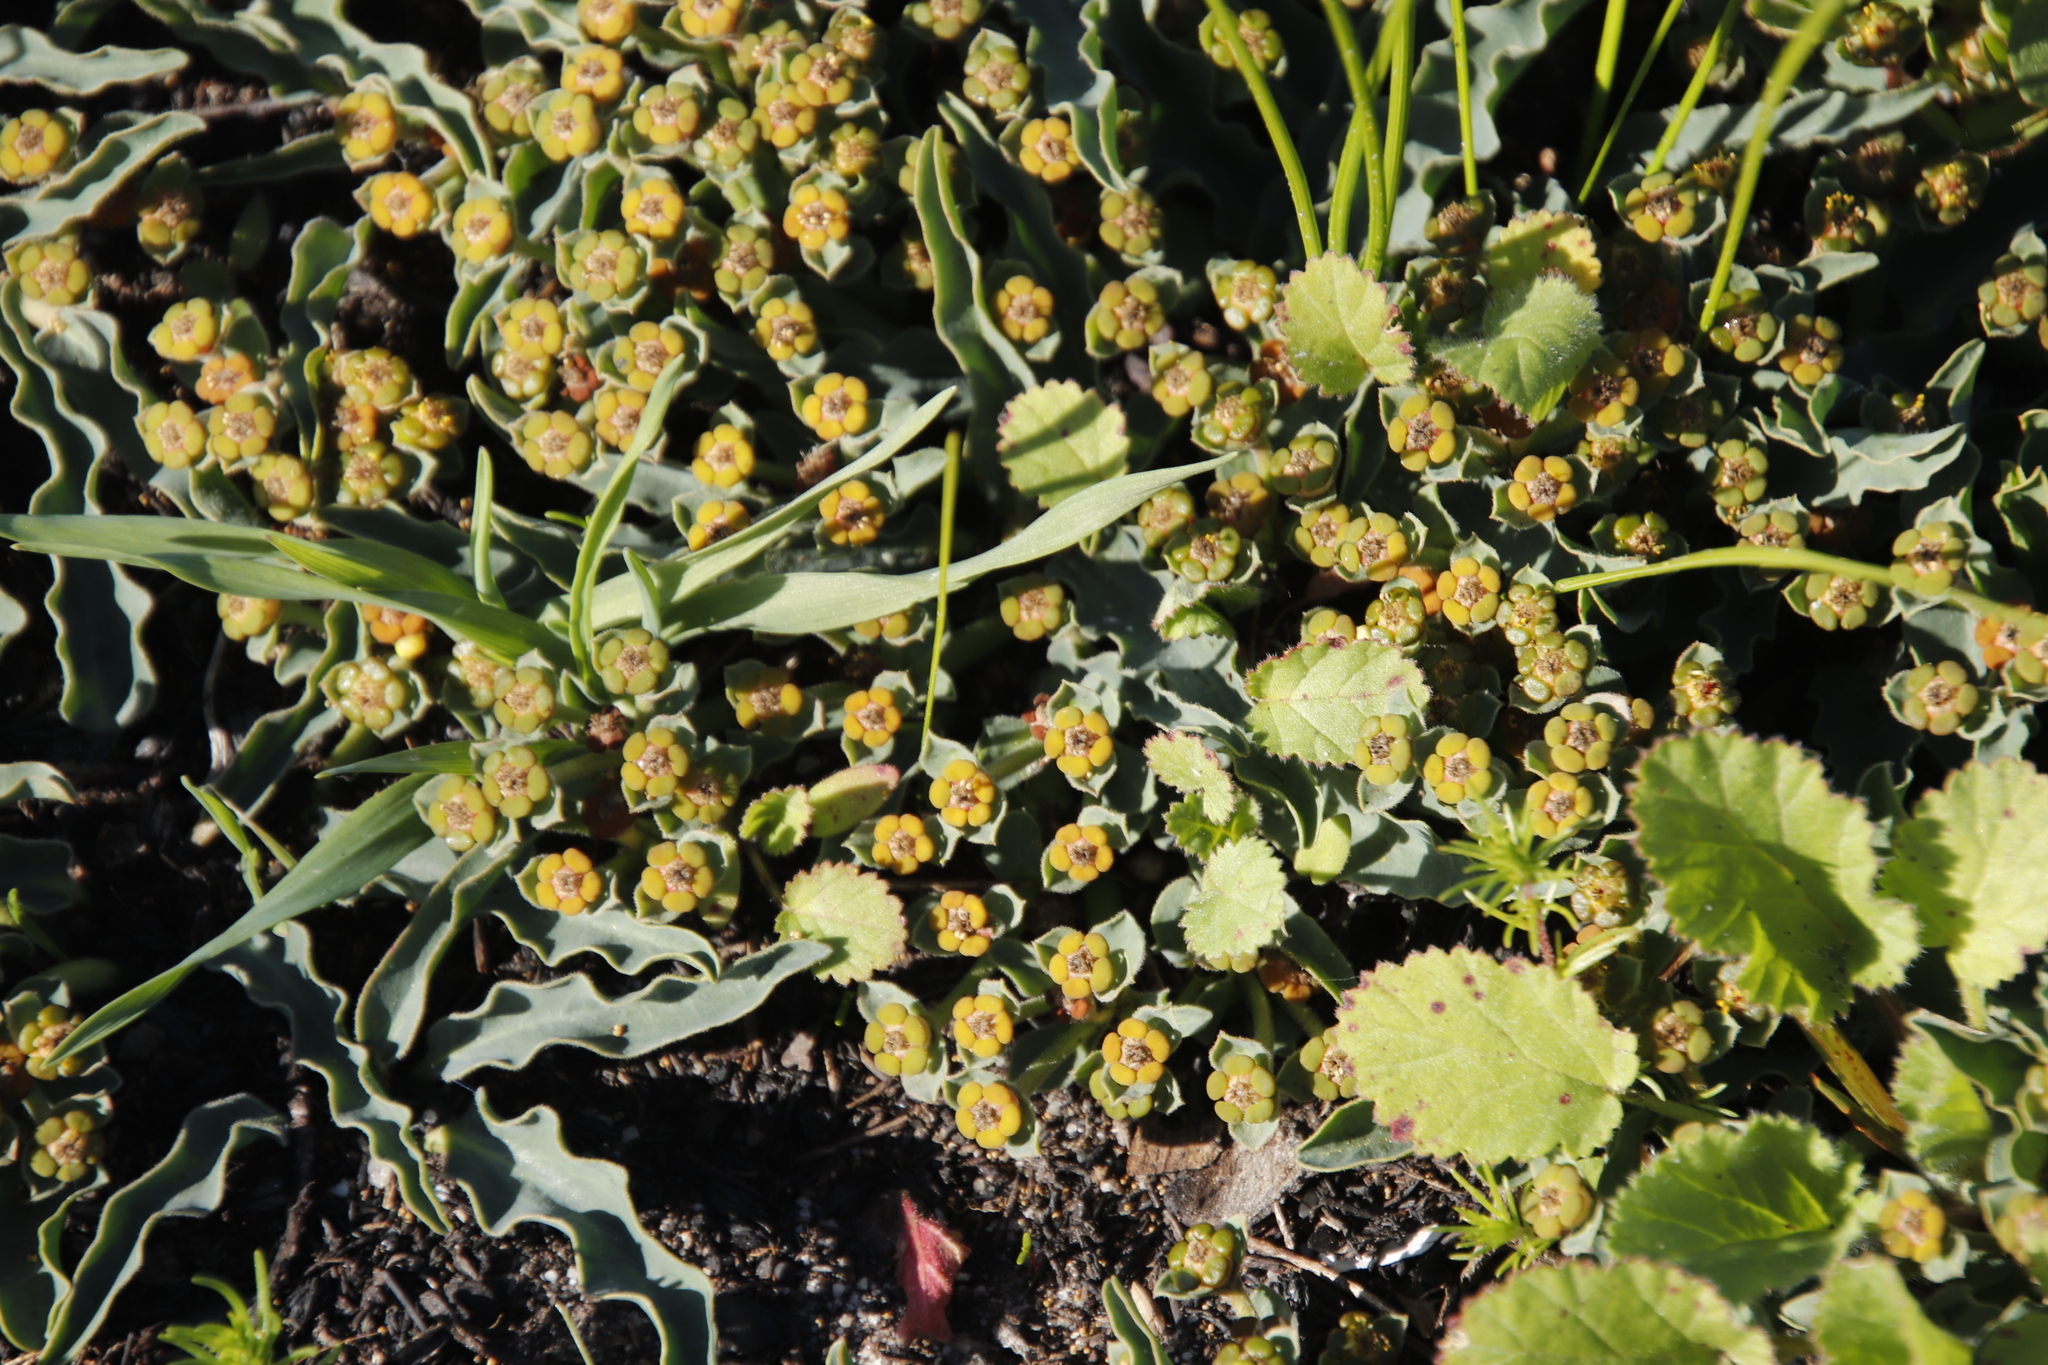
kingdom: Plantae
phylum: Tracheophyta
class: Magnoliopsida
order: Malpighiales
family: Euphorbiaceae
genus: Euphorbia
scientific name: Euphorbia tuberosa
